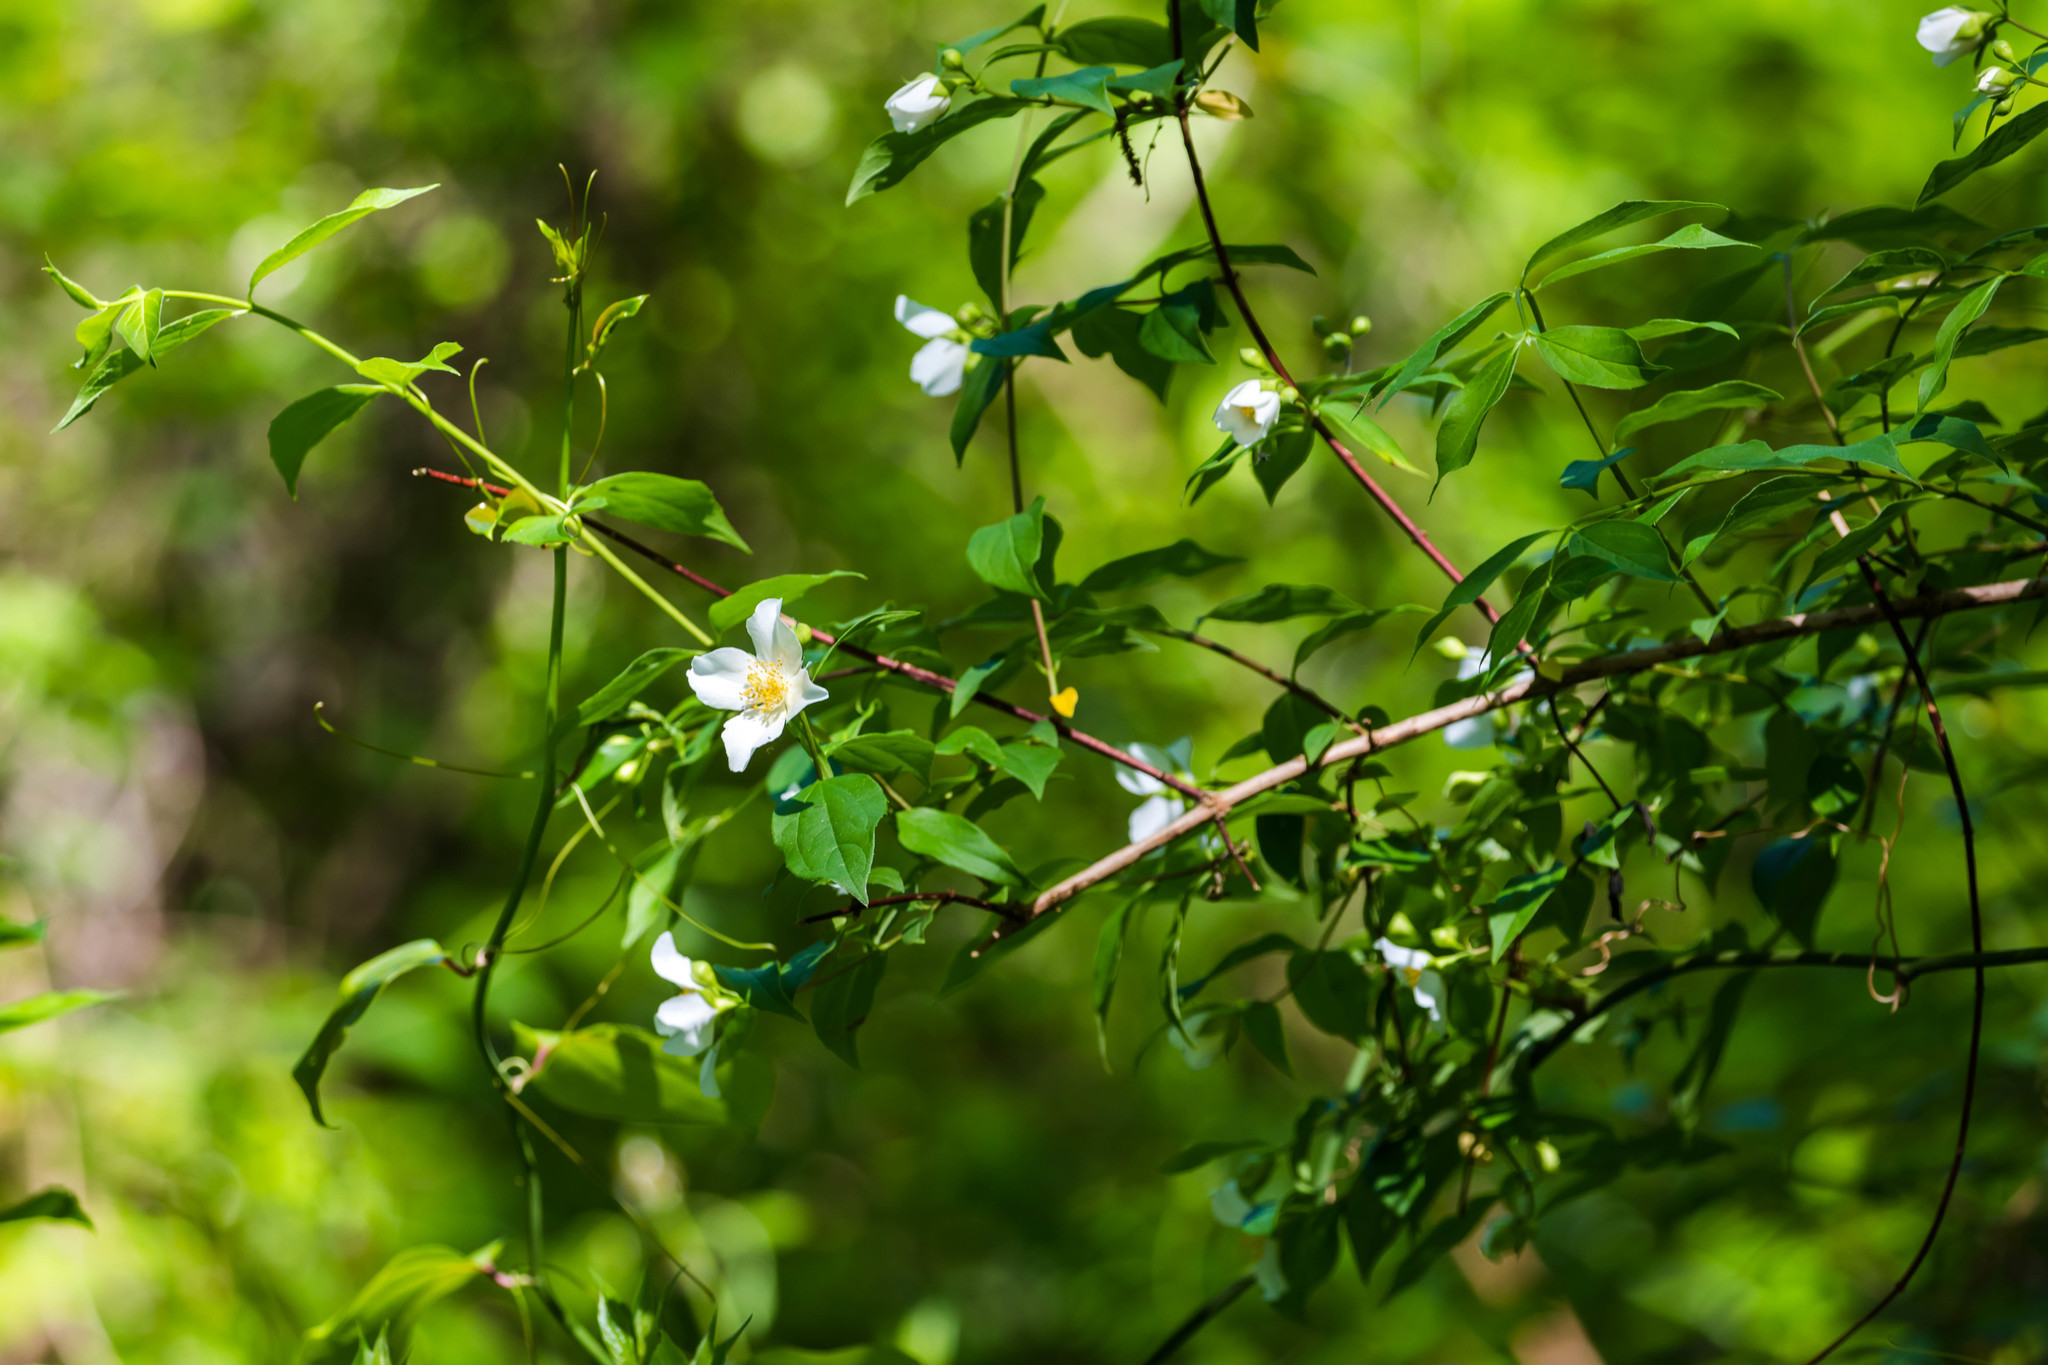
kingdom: Plantae
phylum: Tracheophyta
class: Magnoliopsida
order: Cornales
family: Hydrangeaceae
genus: Philadelphus
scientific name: Philadelphus inodorus
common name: Scentless mock-orange
